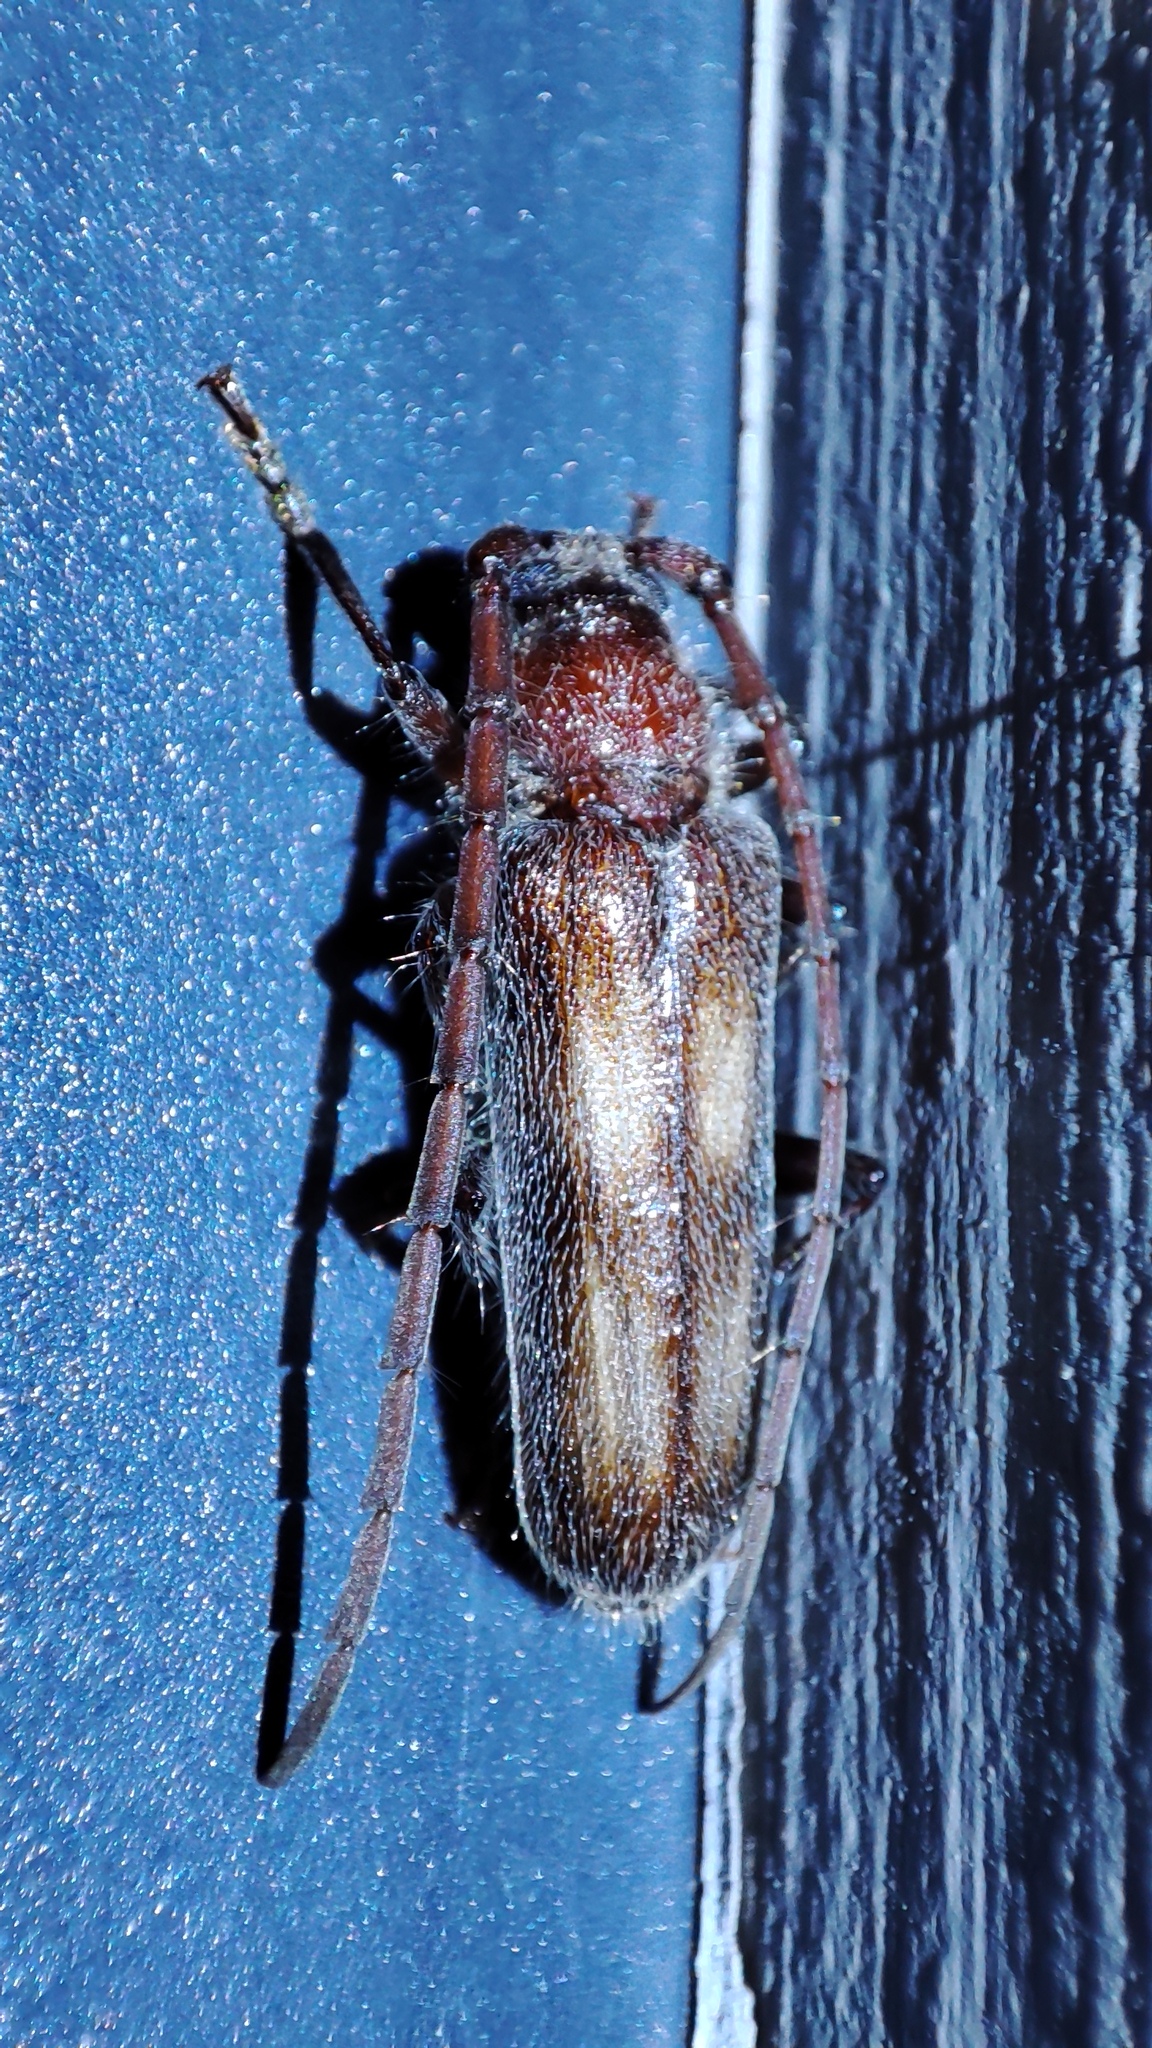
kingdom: Animalia
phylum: Arthropoda
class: Insecta
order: Coleoptera
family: Cerambycidae
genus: Crinarnoldius
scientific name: Crinarnoldius maculatus
